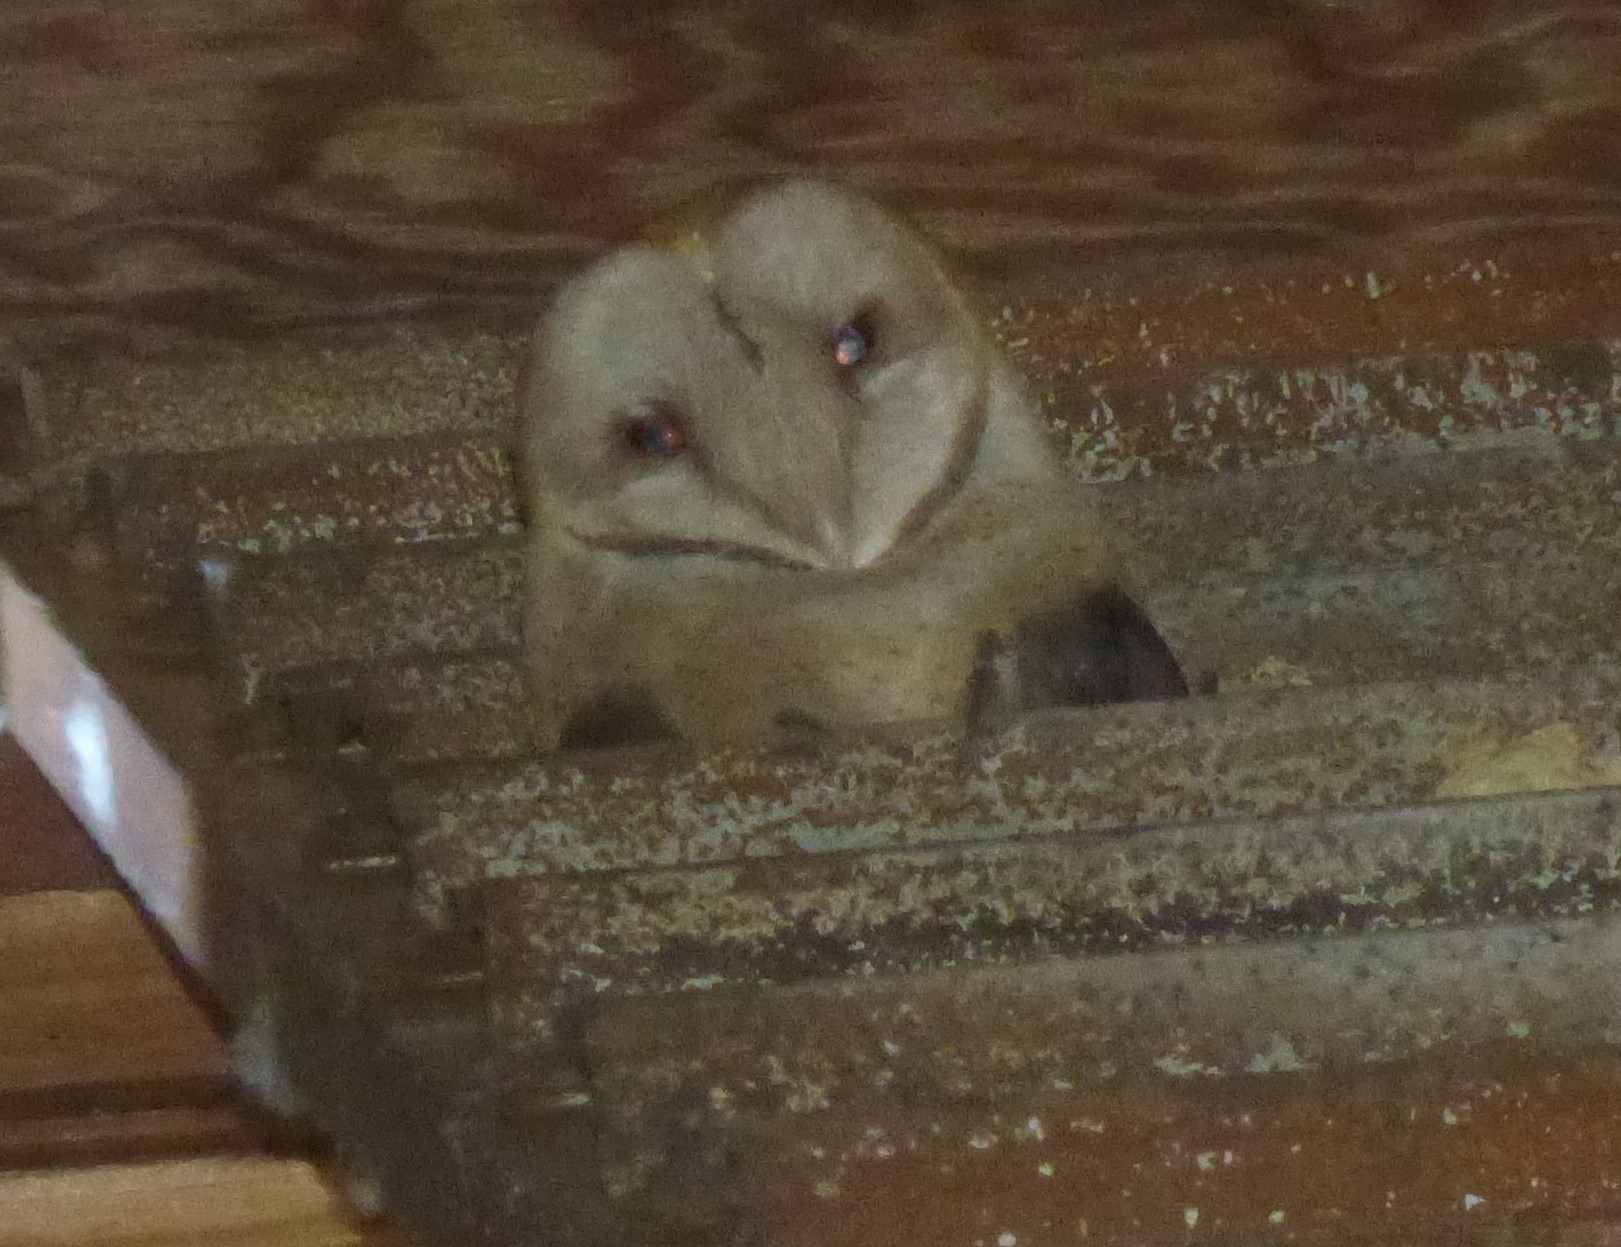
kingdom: Animalia
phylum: Chordata
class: Aves
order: Strigiformes
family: Tytonidae
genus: Tyto
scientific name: Tyto alba
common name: Barn owl
